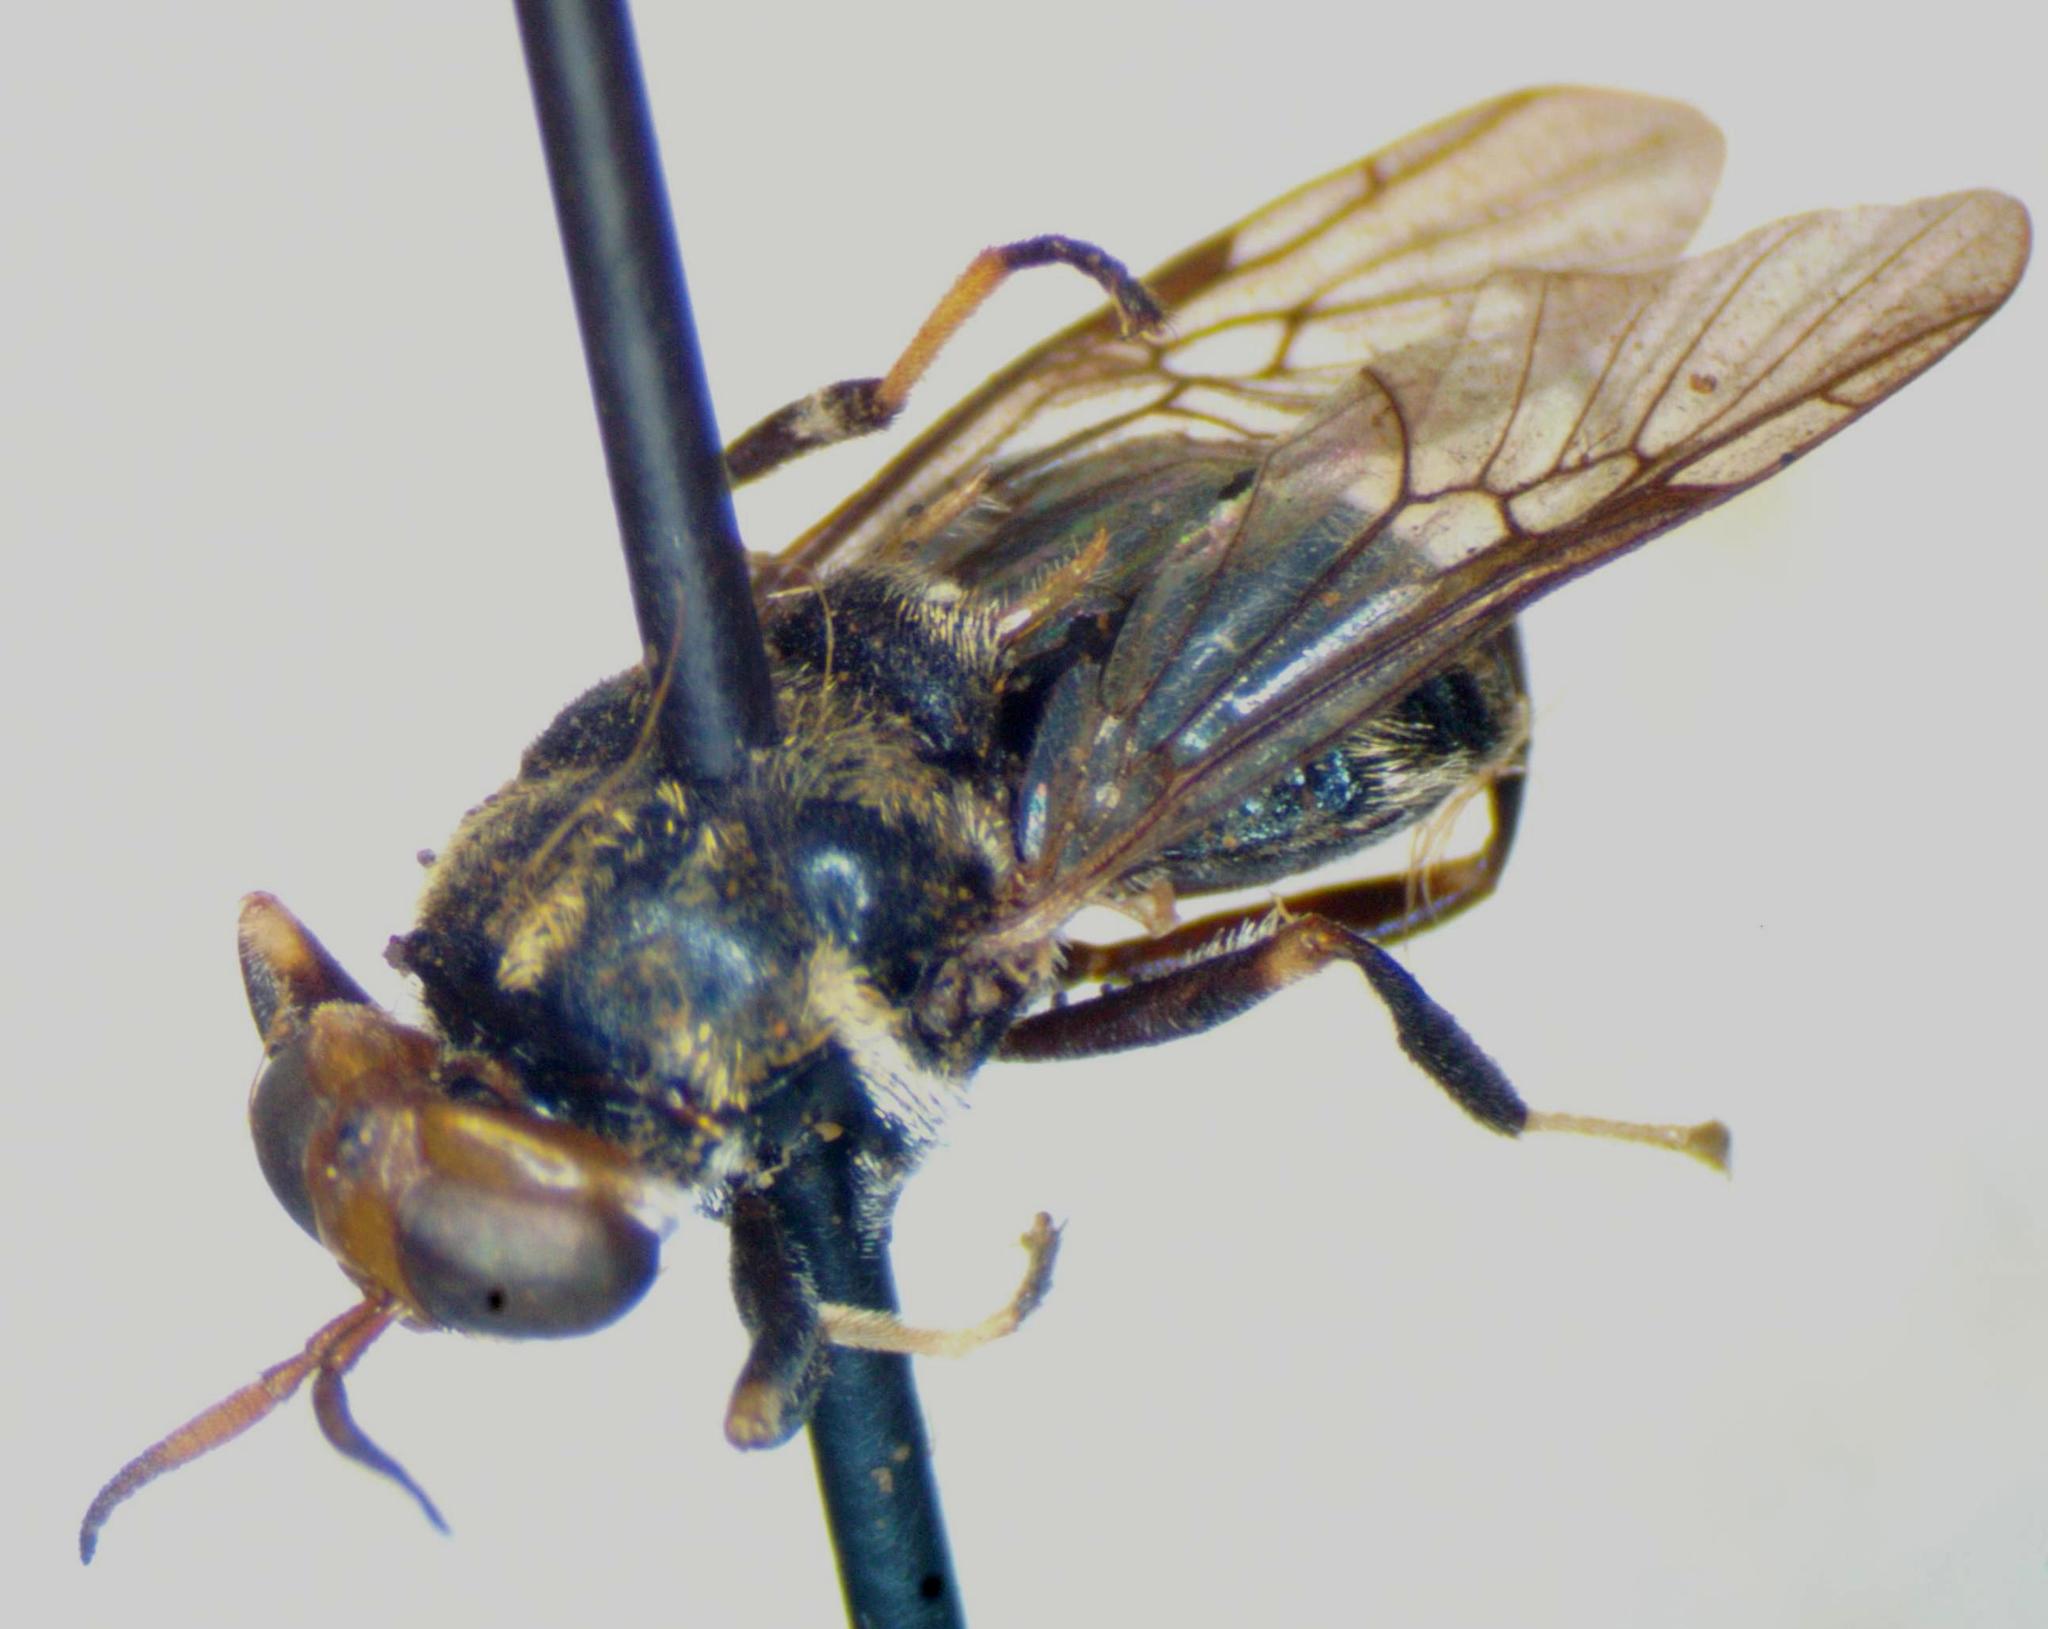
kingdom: Animalia
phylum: Arthropoda
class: Insecta
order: Diptera
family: Stratiomyidae
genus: Cyphomyia
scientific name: Cyphomyia pulchella
